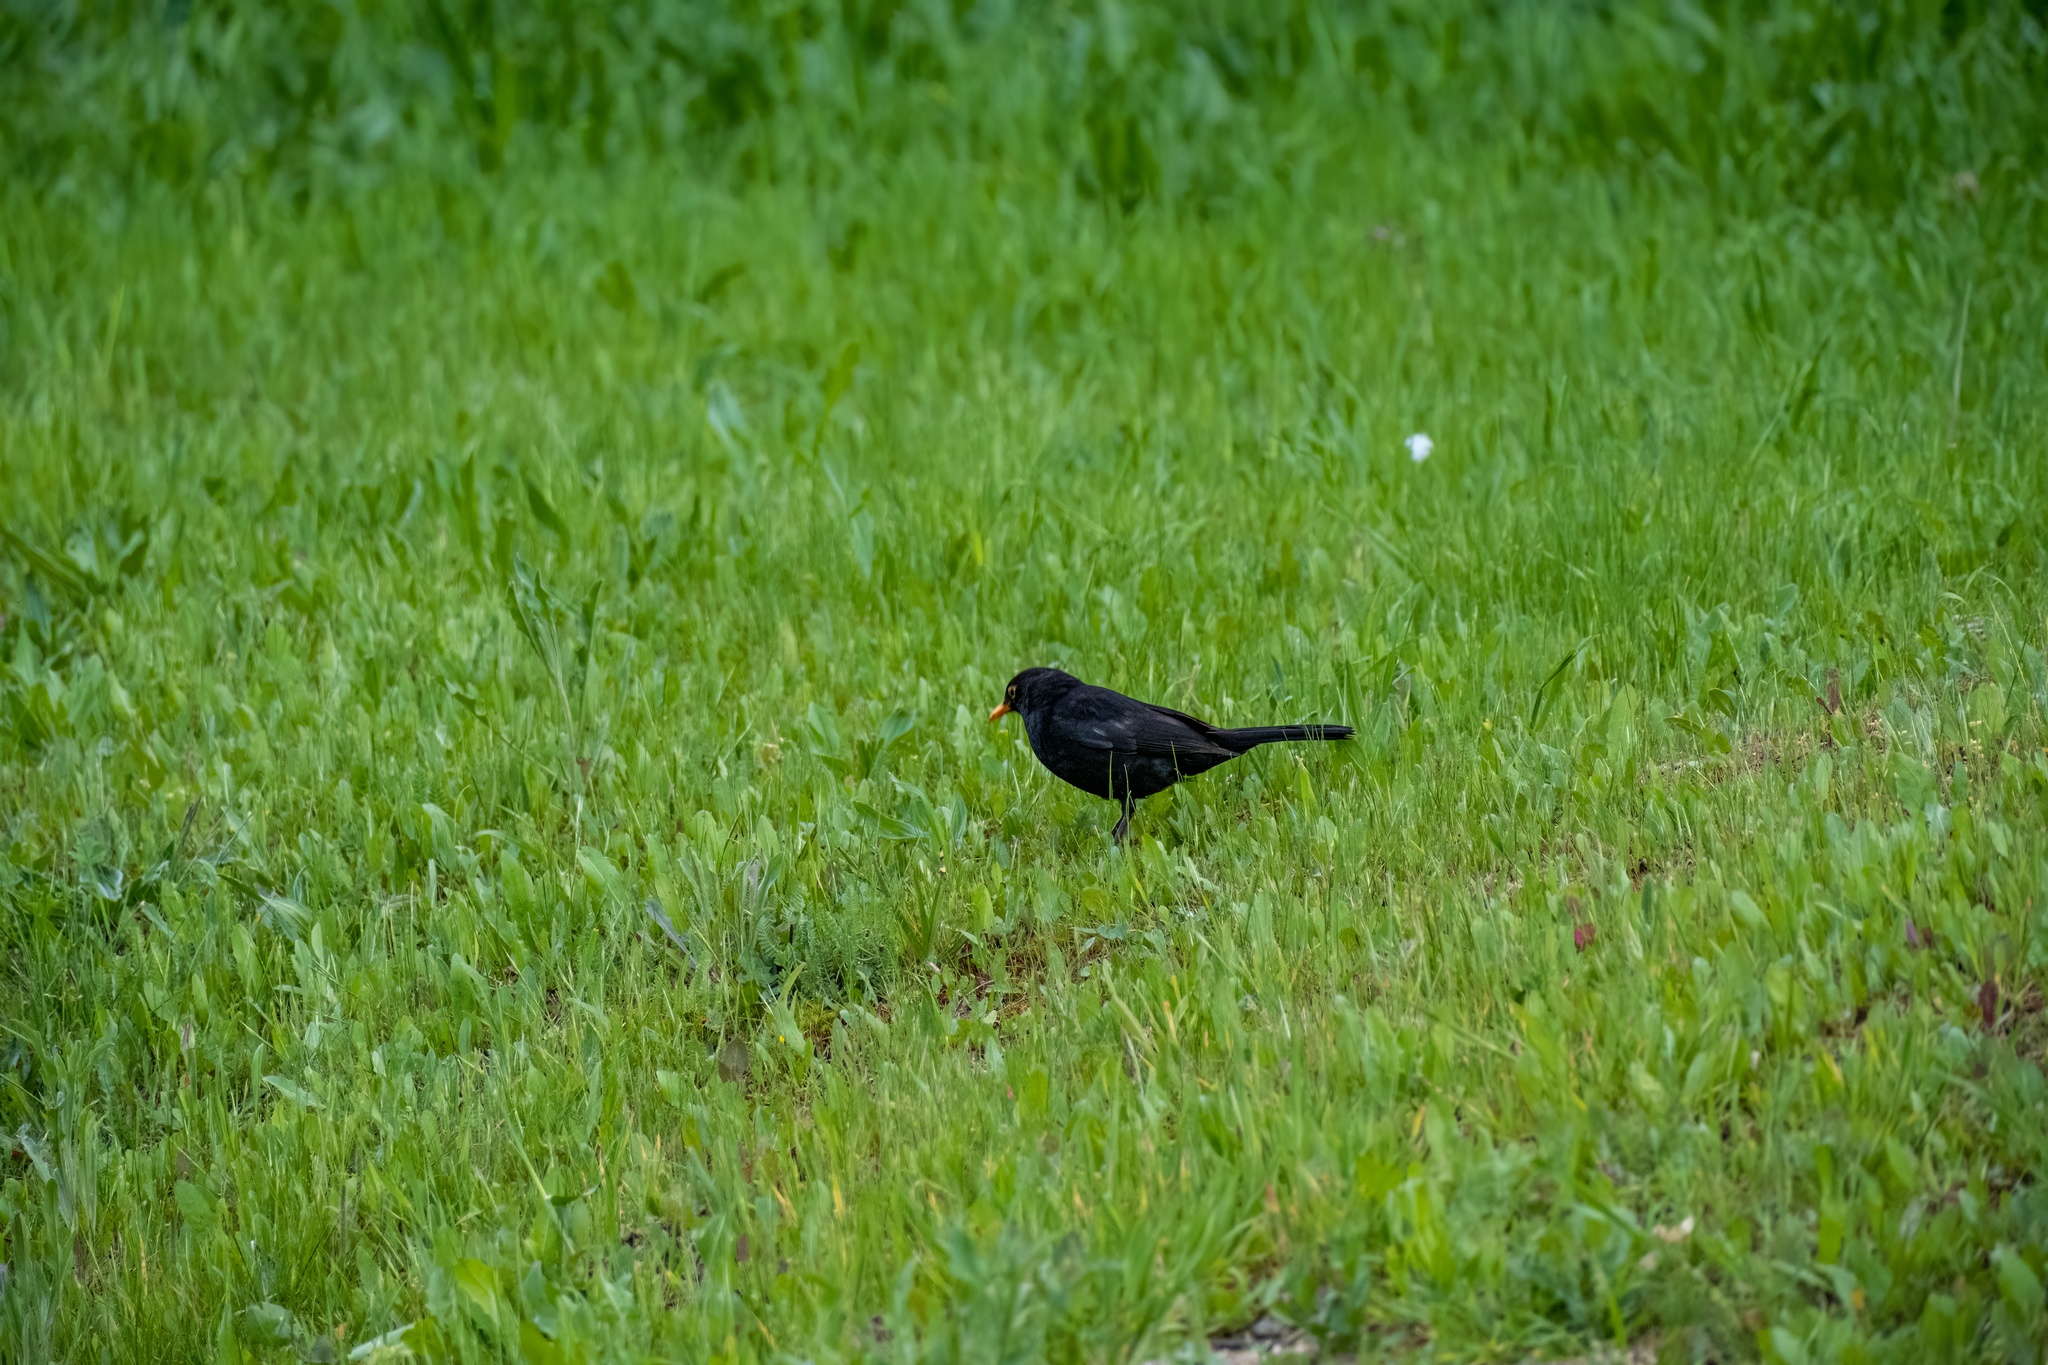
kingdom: Animalia
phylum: Chordata
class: Aves
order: Passeriformes
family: Turdidae
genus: Turdus
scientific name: Turdus merula
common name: Common blackbird
